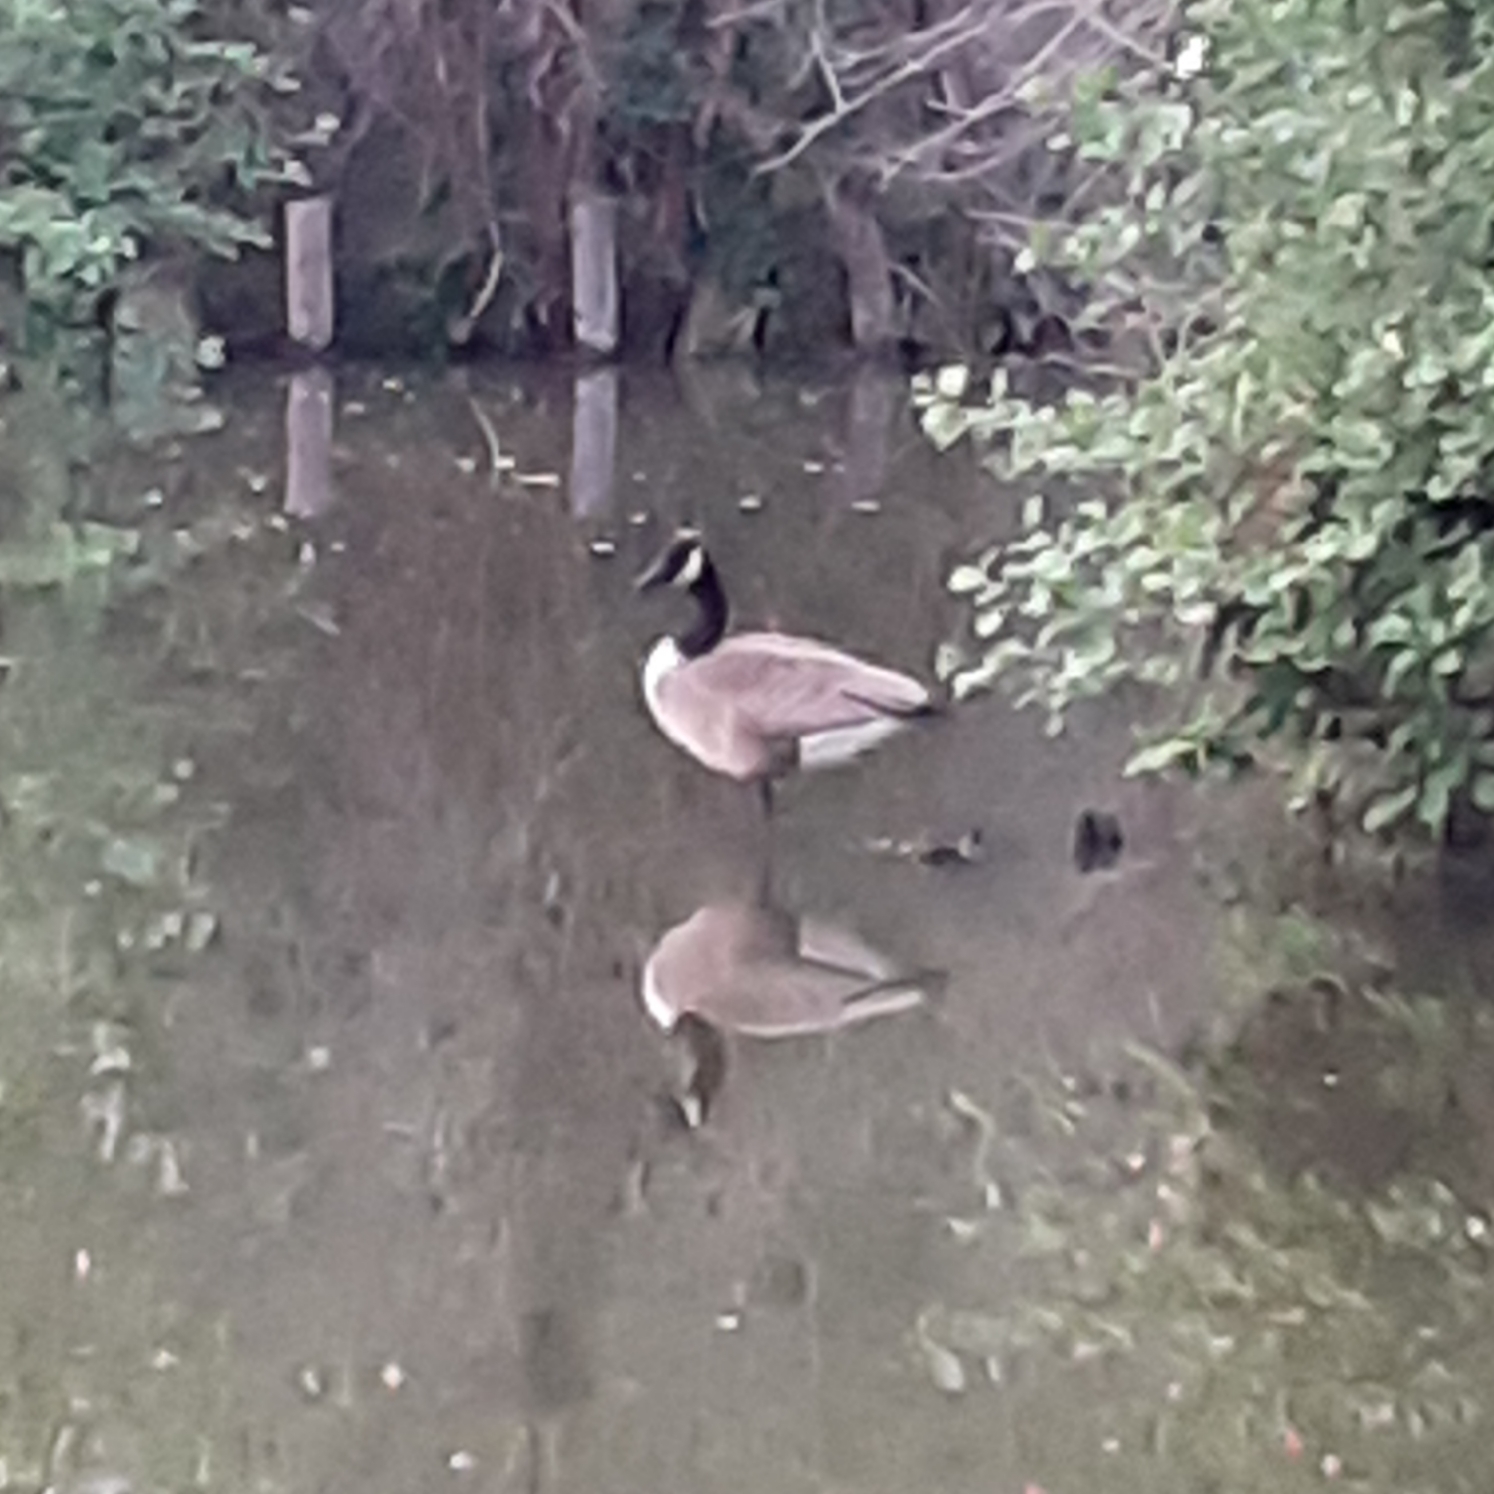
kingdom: Animalia
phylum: Chordata
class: Aves
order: Anseriformes
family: Anatidae
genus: Branta
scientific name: Branta canadensis
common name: Canada goose
